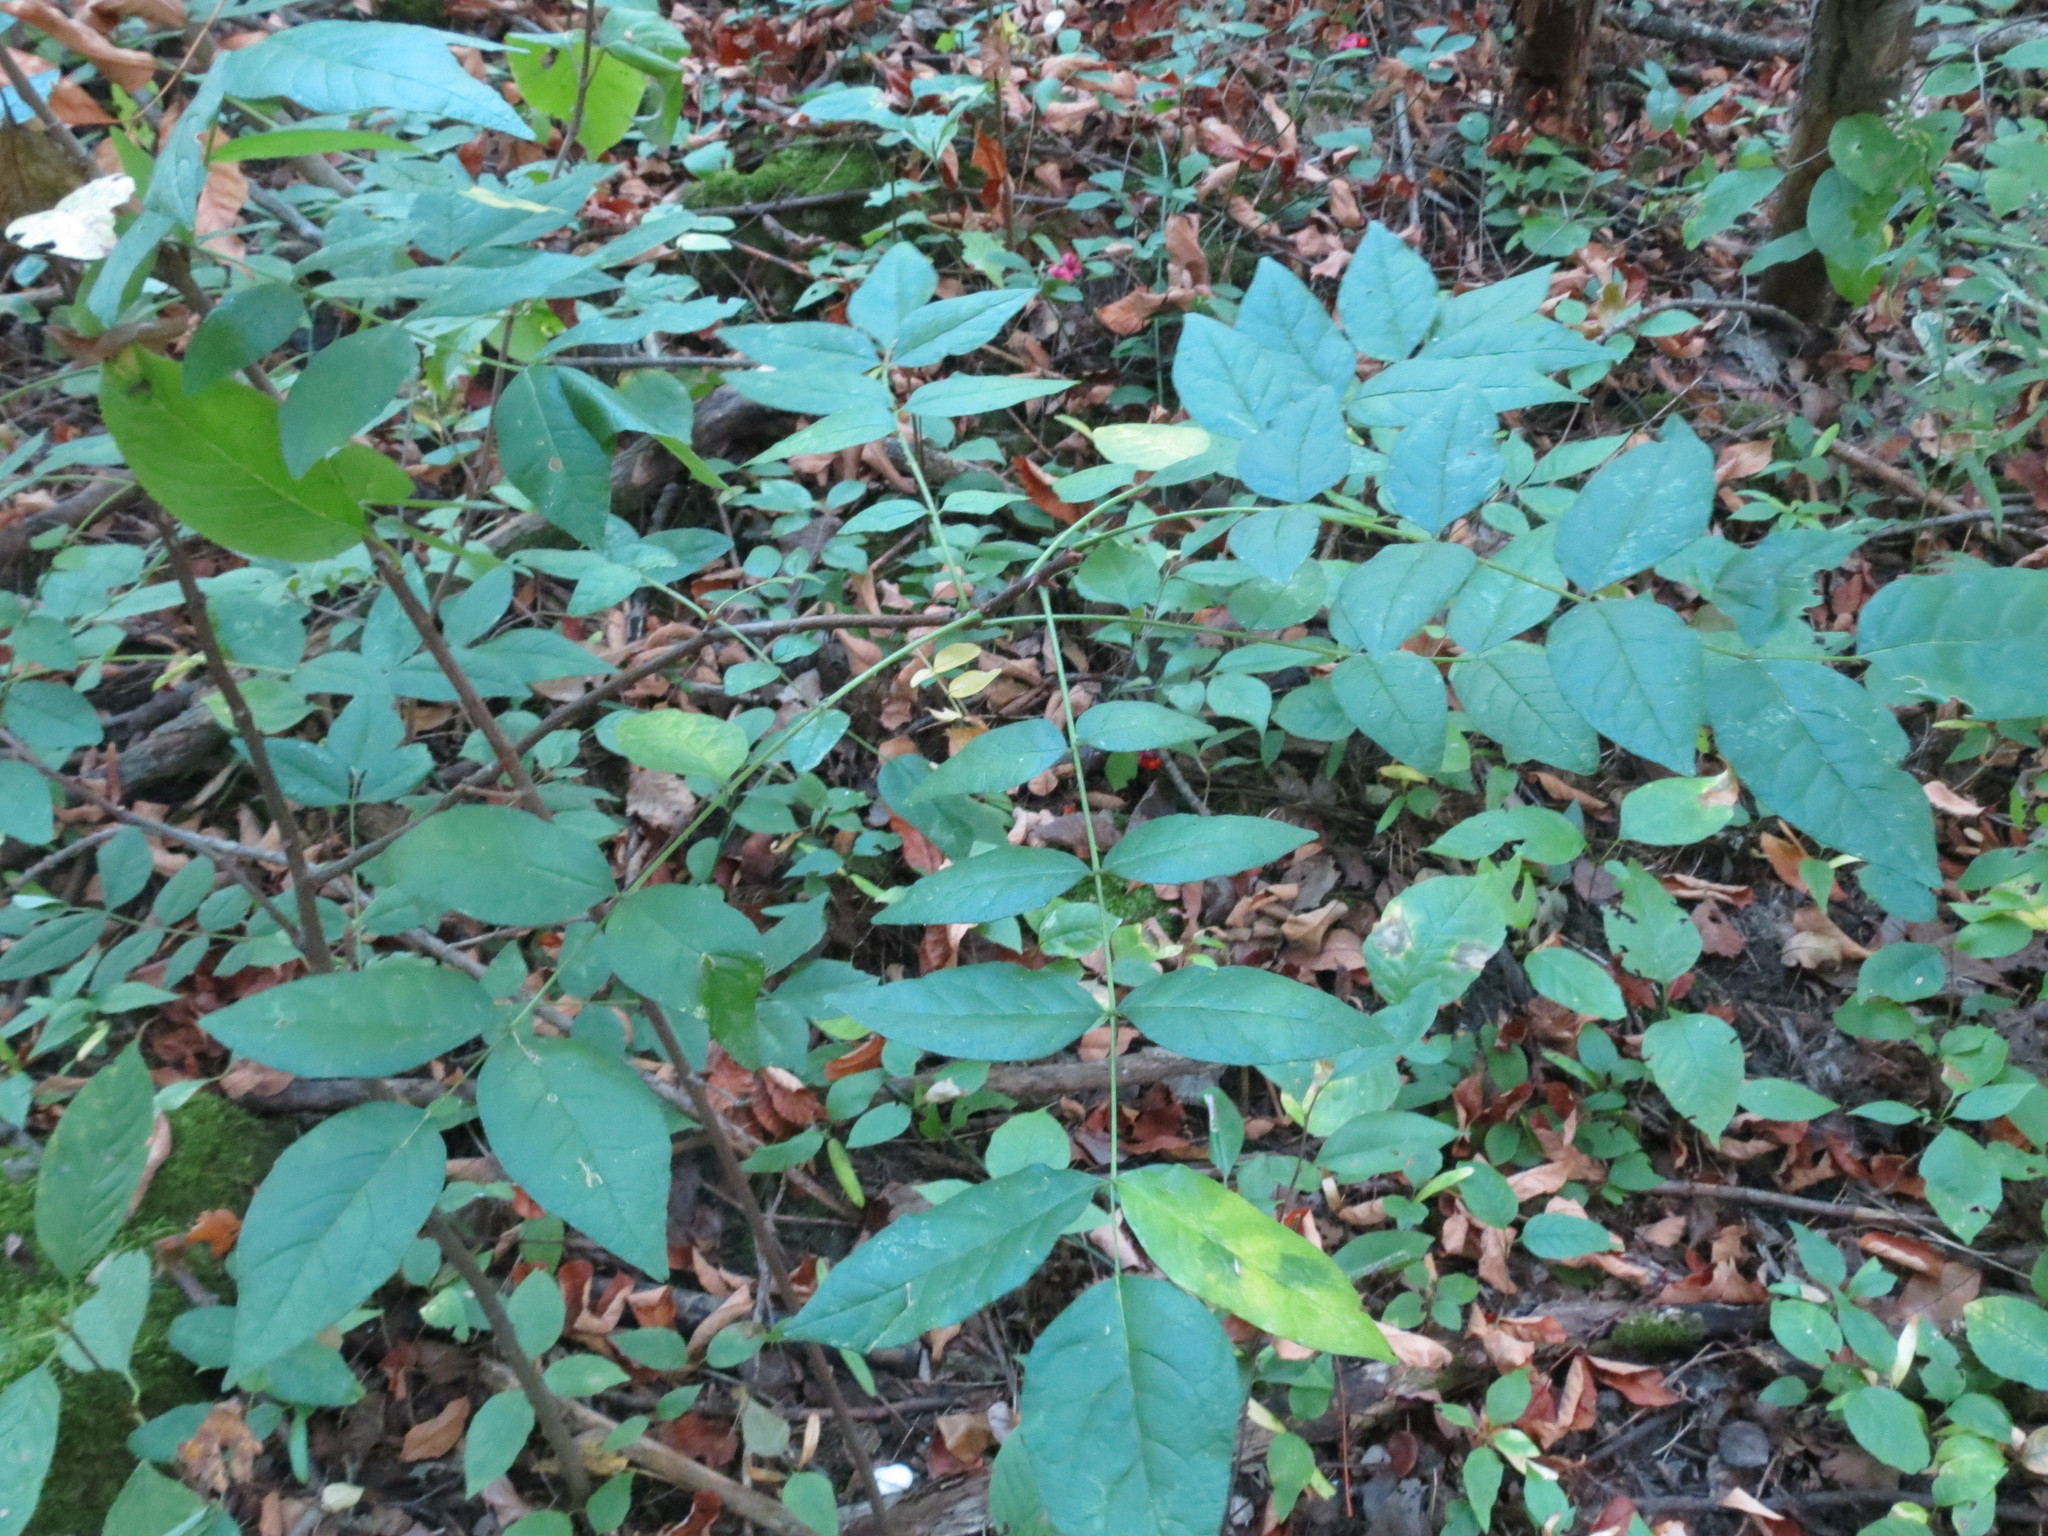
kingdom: Plantae
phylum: Tracheophyta
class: Magnoliopsida
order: Sapindales
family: Rutaceae
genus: Zanthoxylum
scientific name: Zanthoxylum americanum
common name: Northern prickly-ash
